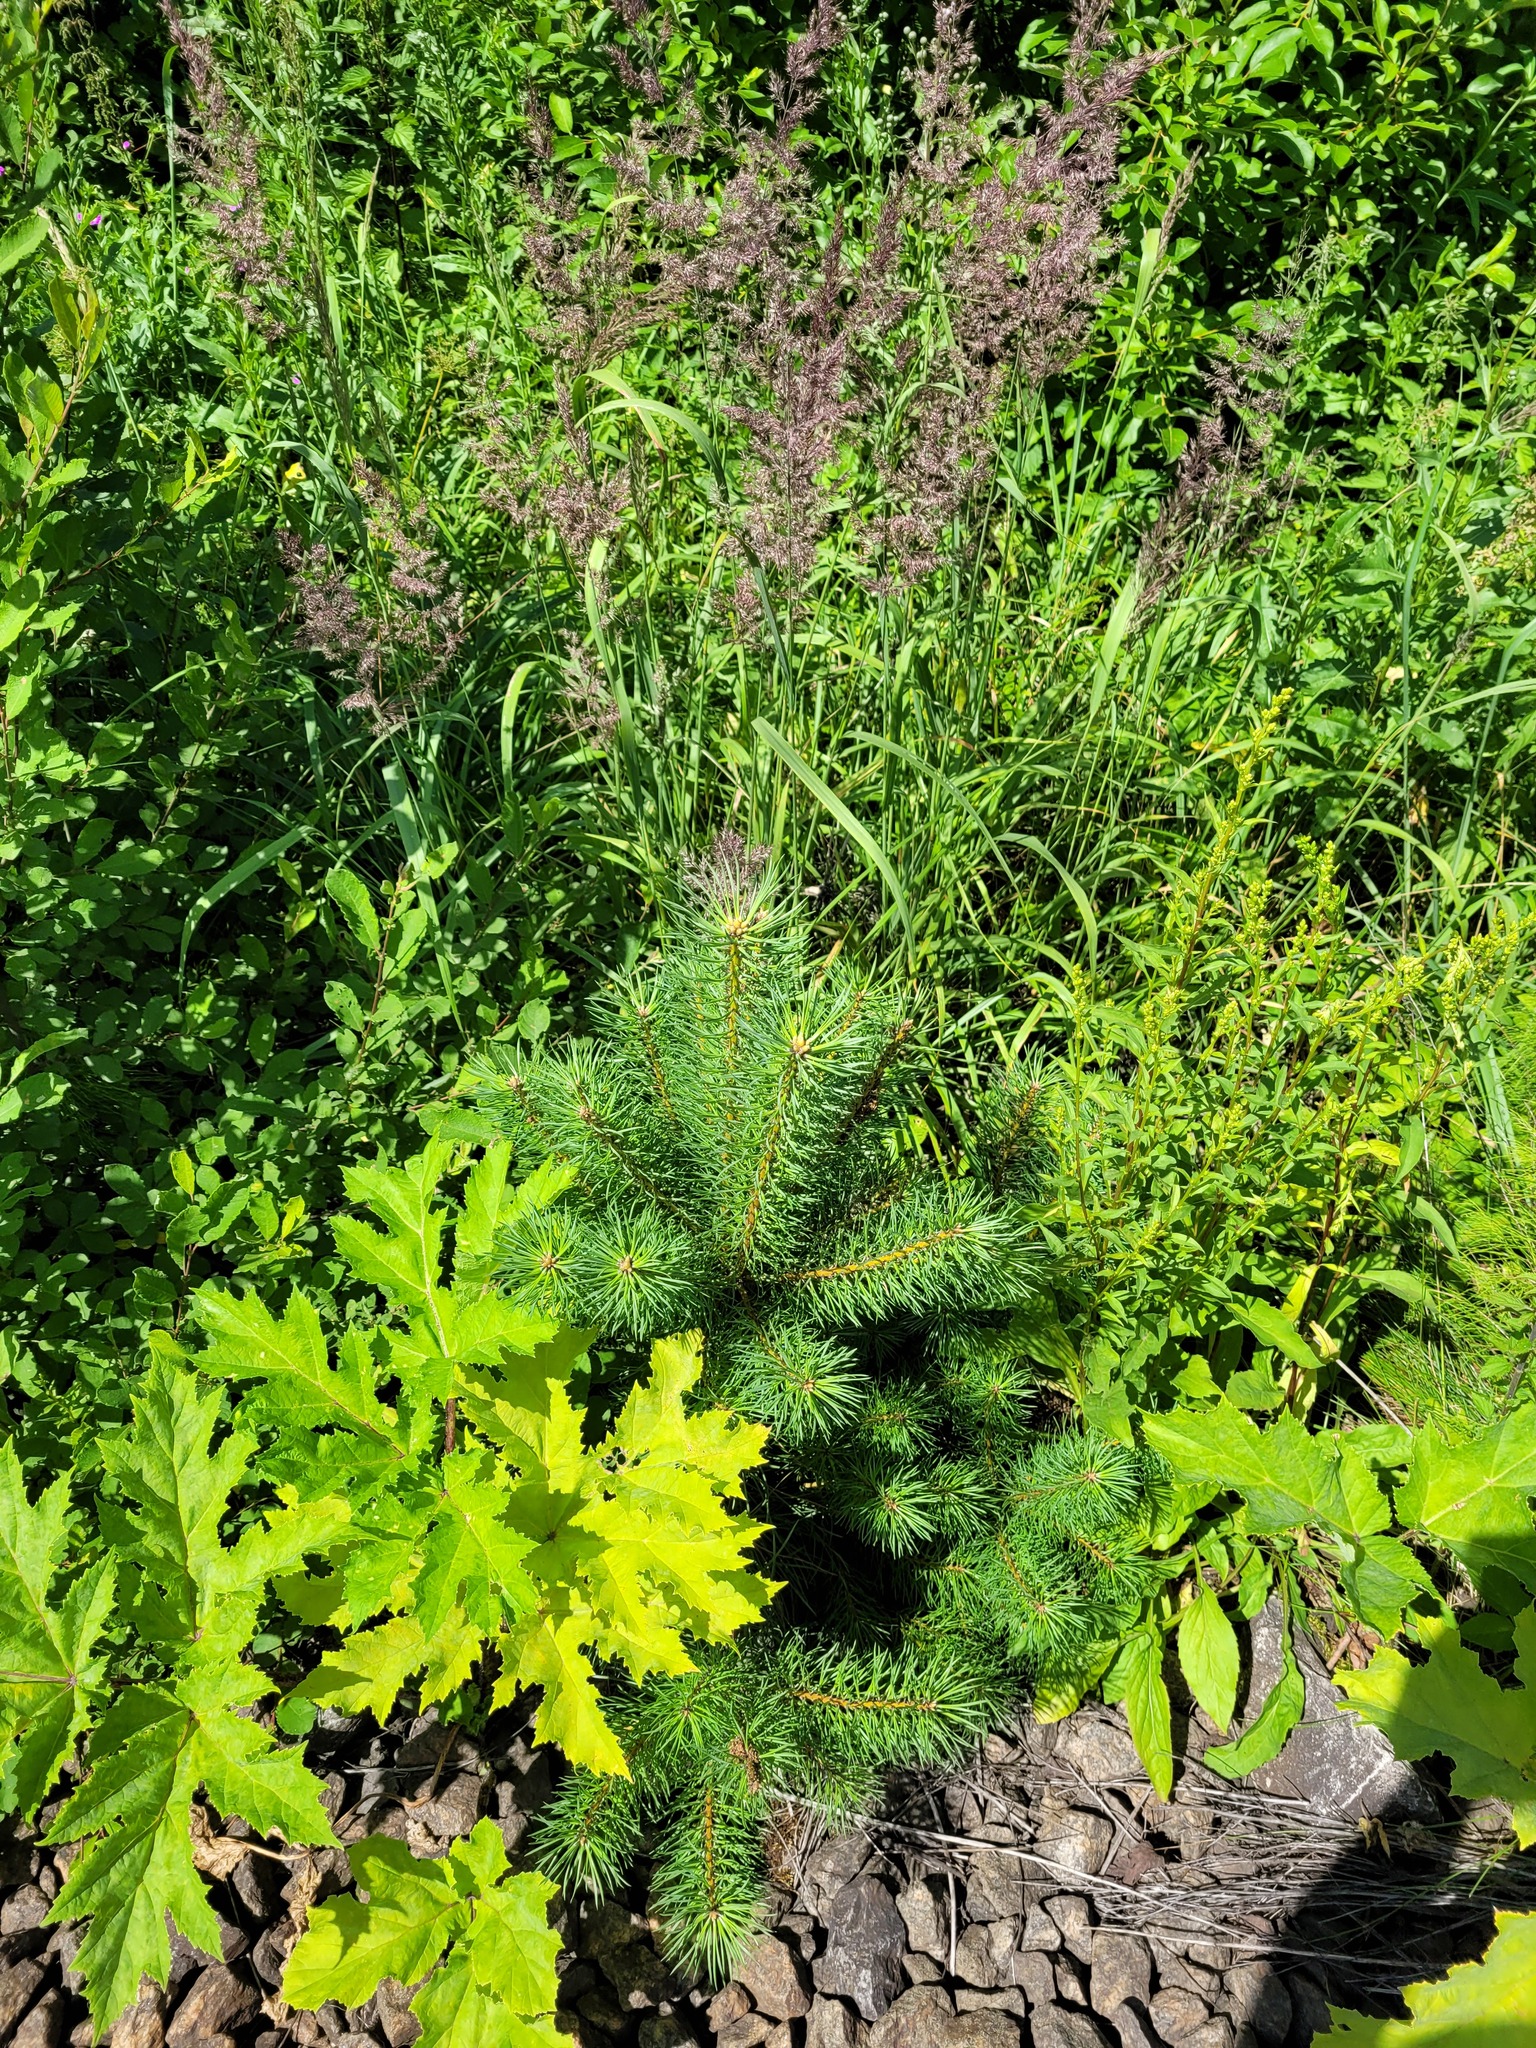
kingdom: Plantae
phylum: Tracheophyta
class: Pinopsida
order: Pinales
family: Pinaceae
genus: Pinus
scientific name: Pinus sylvestris
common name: Scots pine
